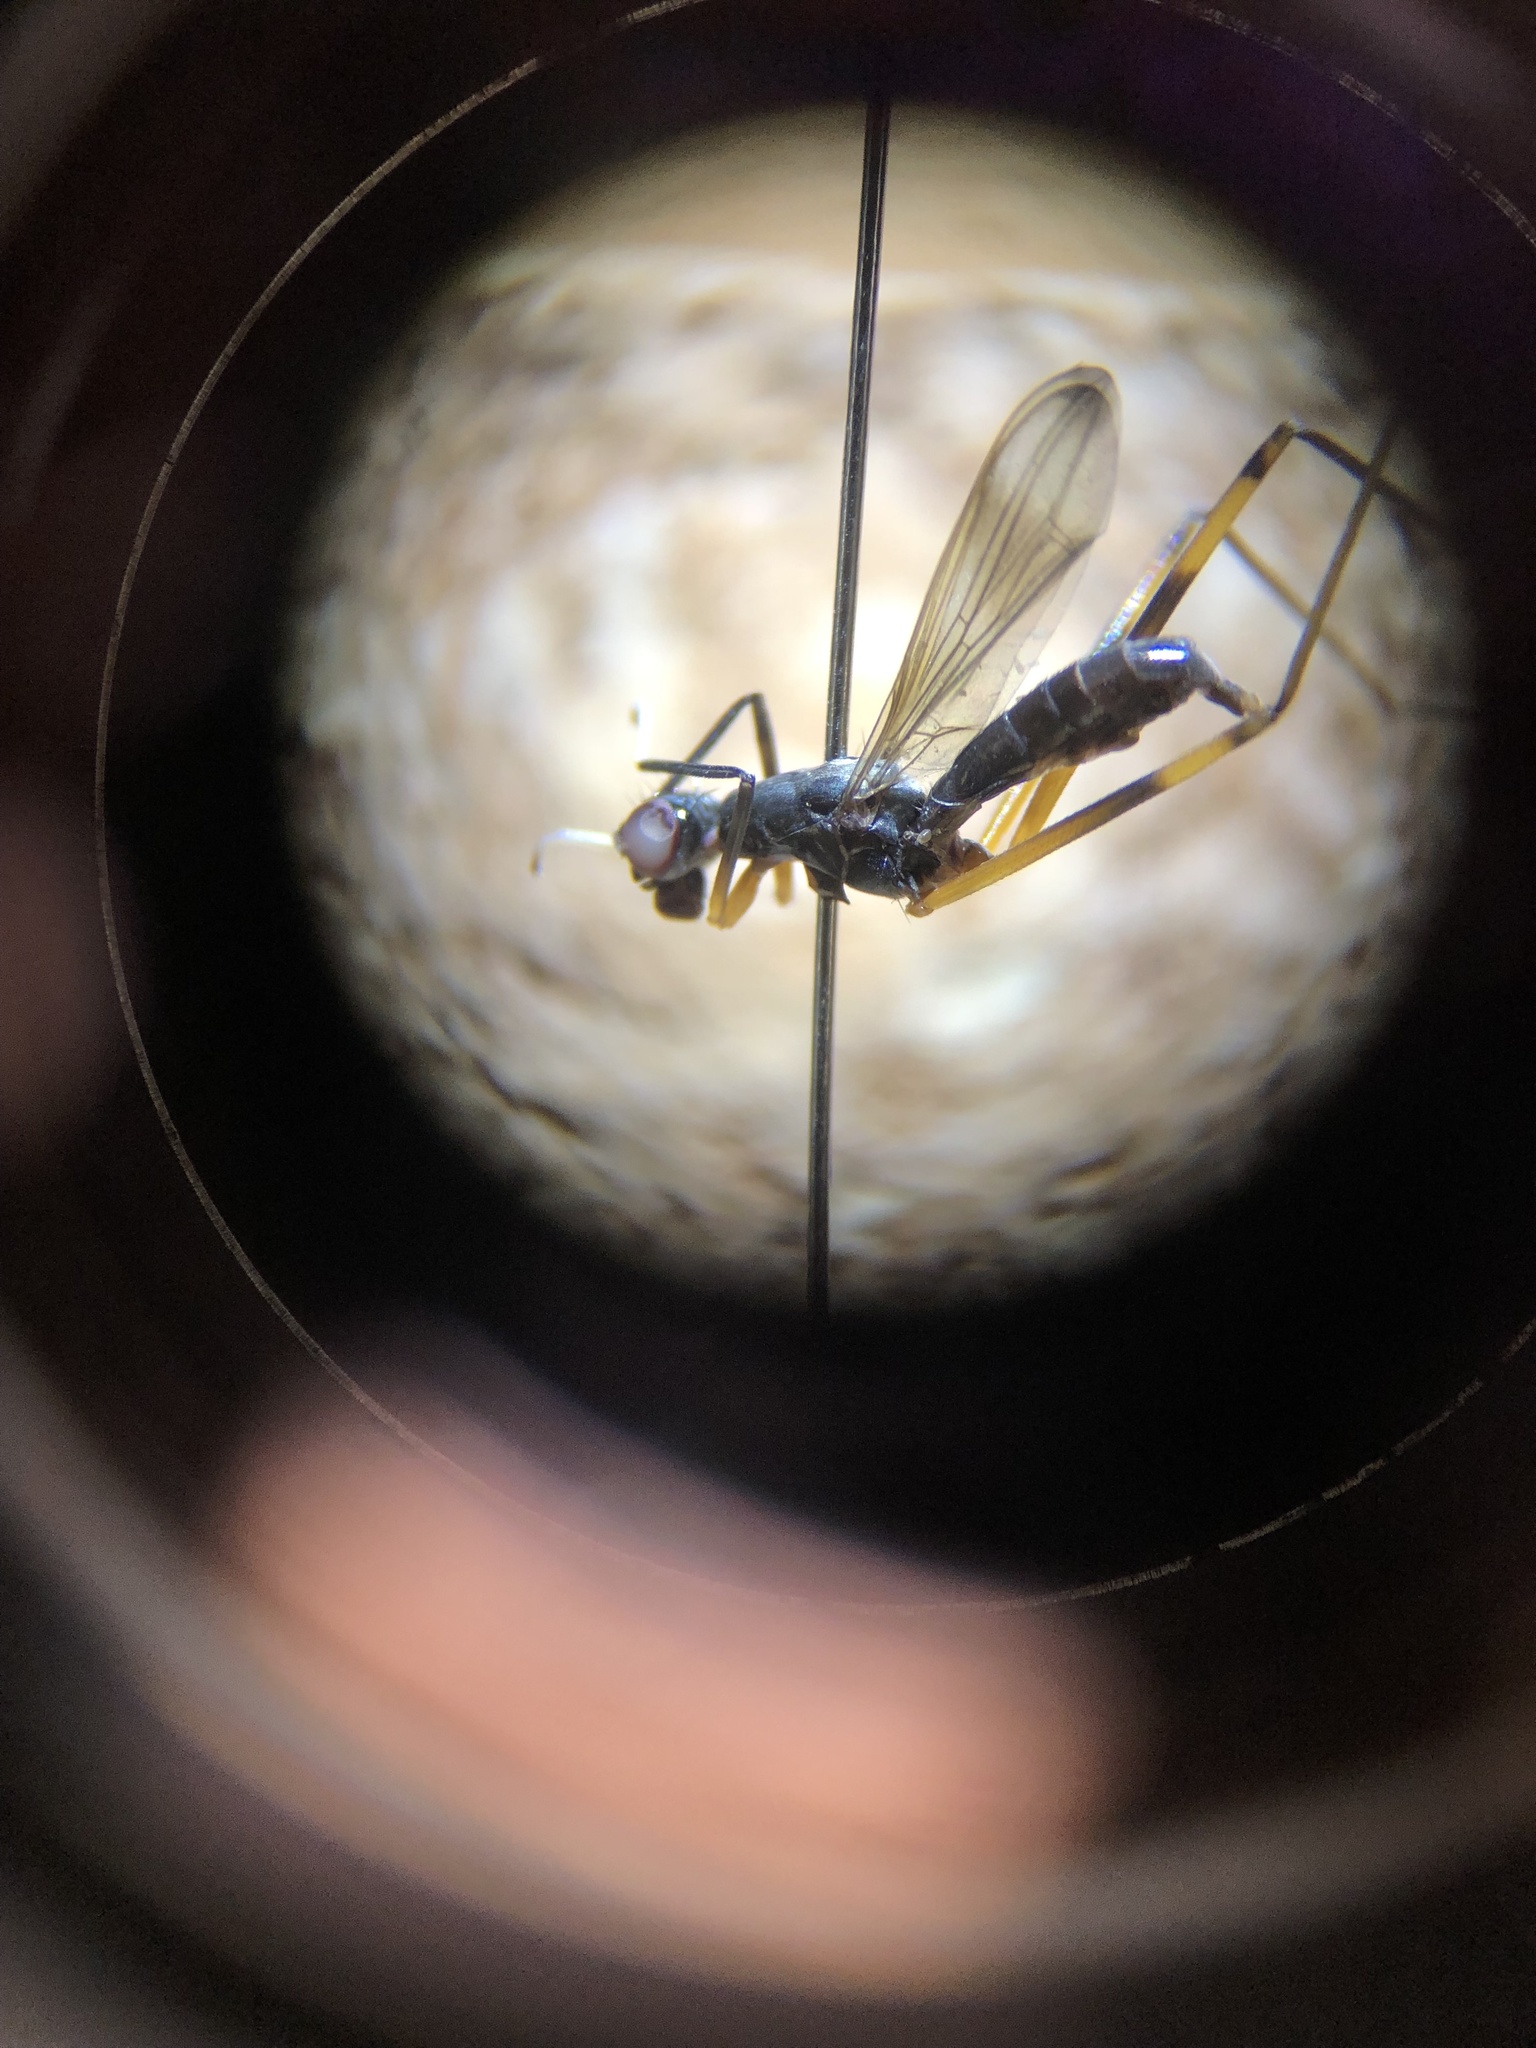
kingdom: Animalia
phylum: Arthropoda
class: Insecta
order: Diptera
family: Micropezidae
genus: Rainieria
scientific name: Rainieria antennaepes
